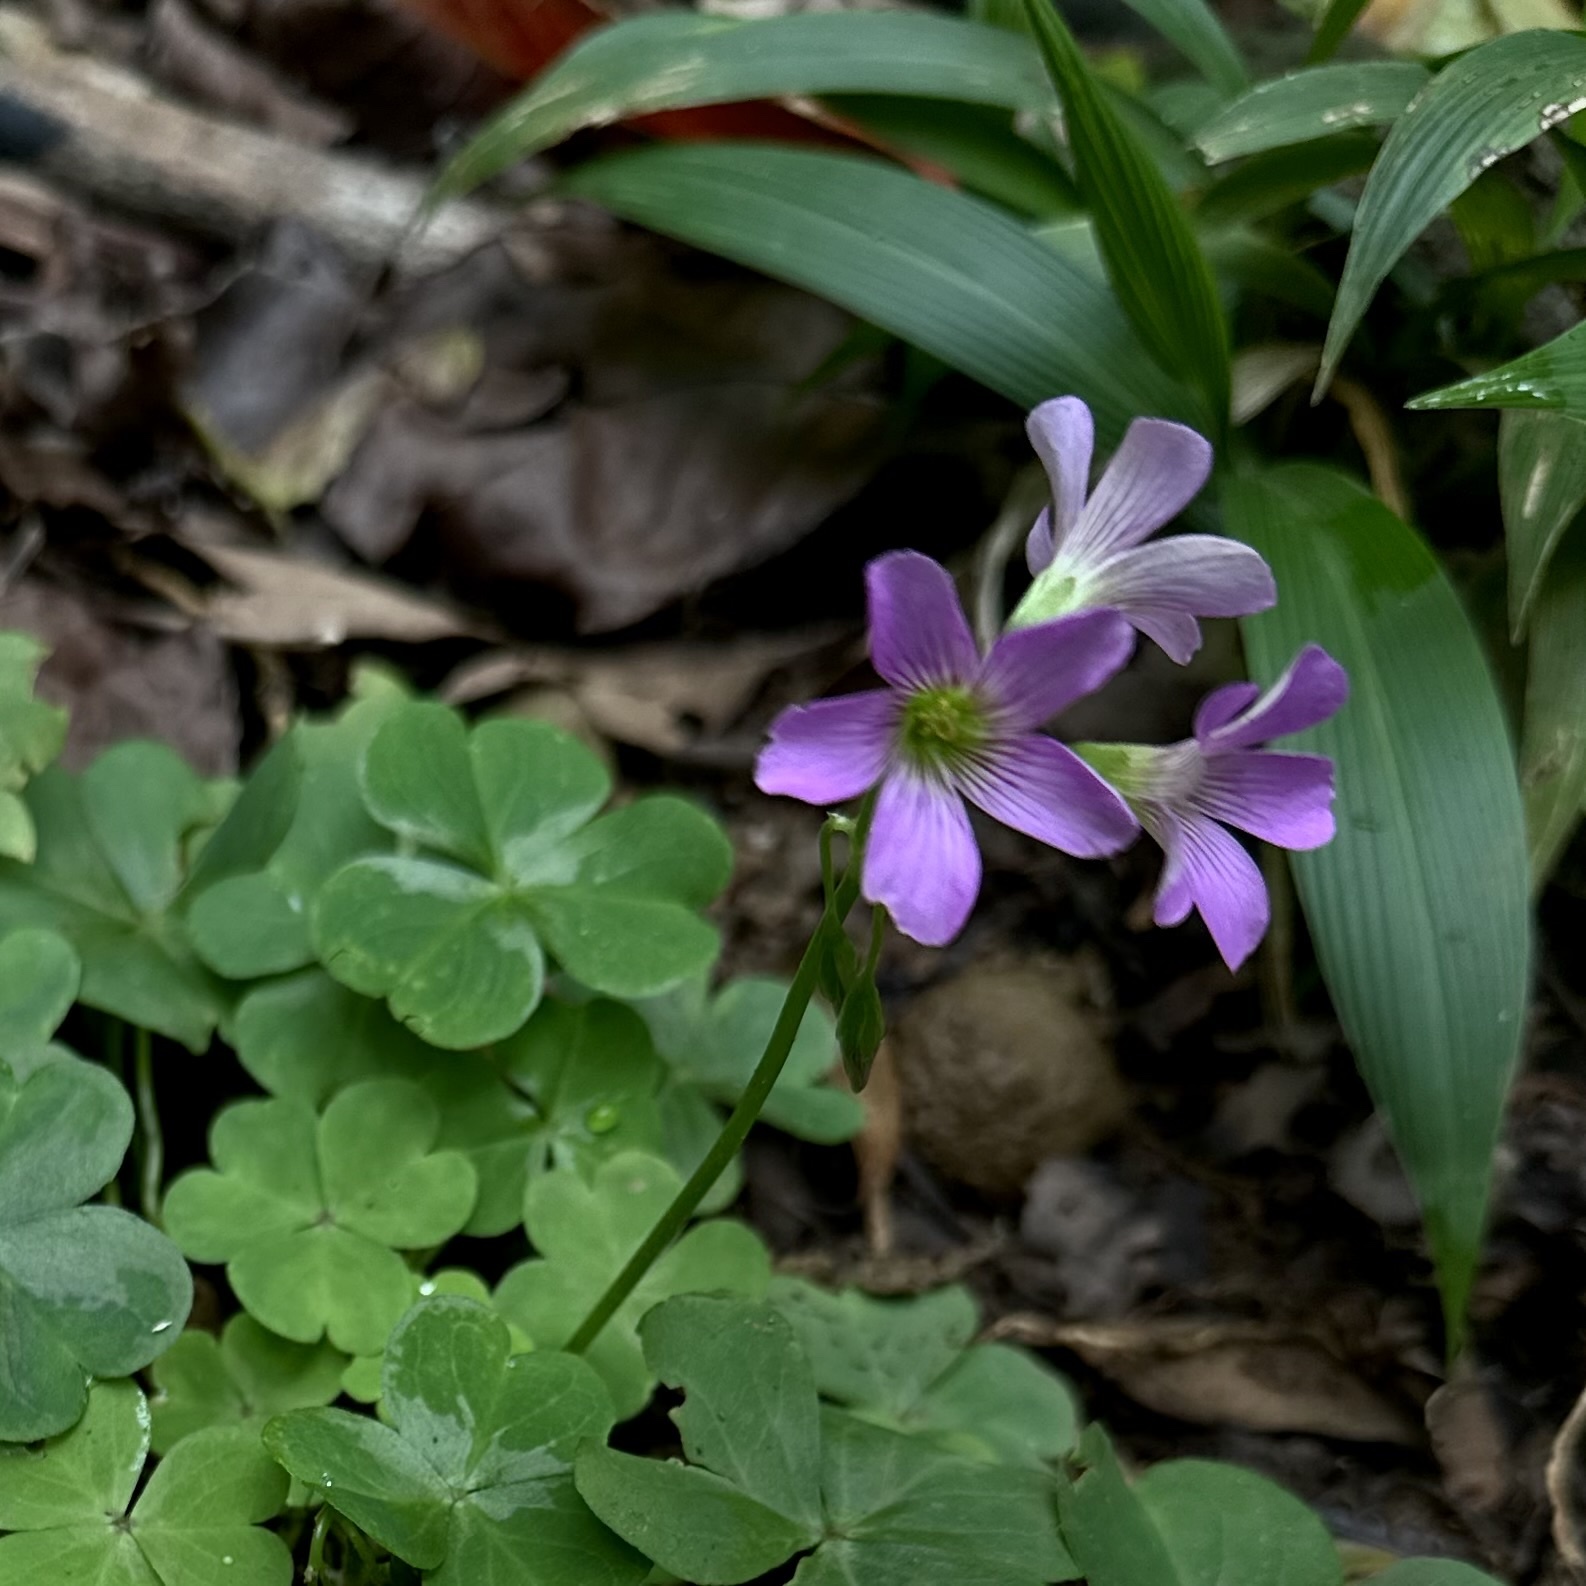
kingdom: Plantae
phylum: Tracheophyta
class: Magnoliopsida
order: Oxalidales
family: Oxalidaceae
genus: Oxalis
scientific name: Oxalis debilis
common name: Large-flowered pink-sorrel
